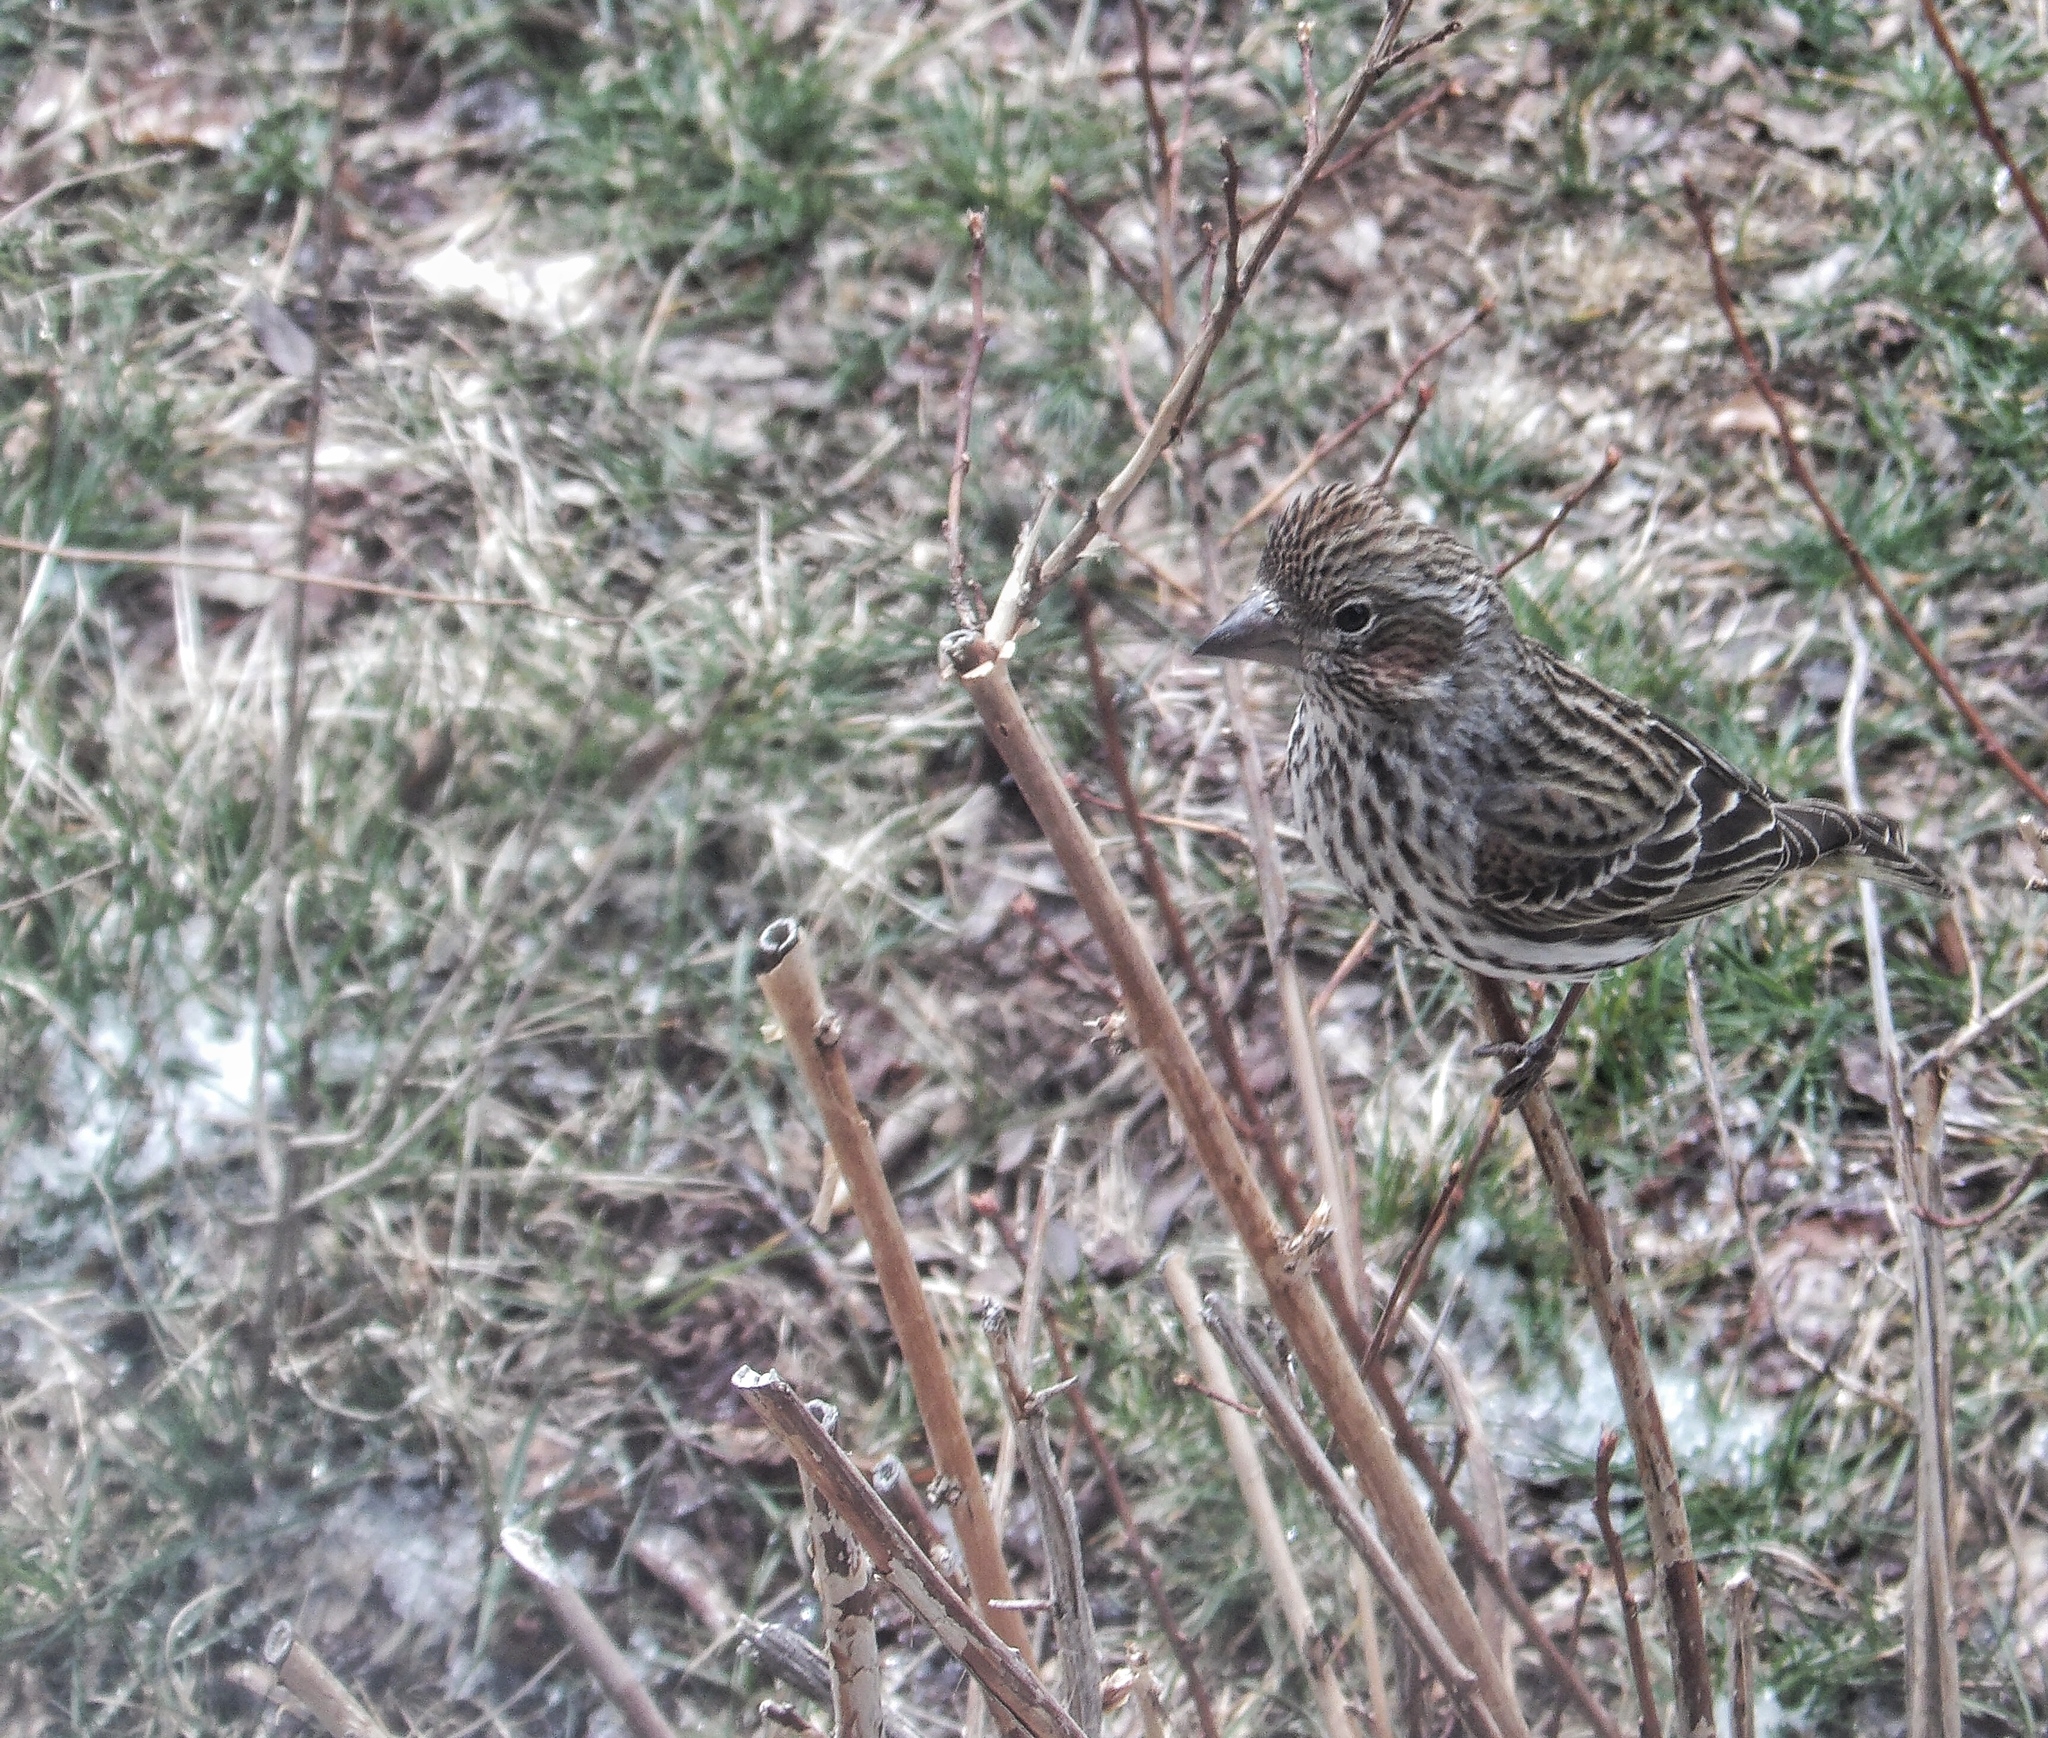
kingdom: Animalia
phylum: Chordata
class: Aves
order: Passeriformes
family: Fringillidae
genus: Haemorhous
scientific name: Haemorhous cassinii
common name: Cassin's finch
